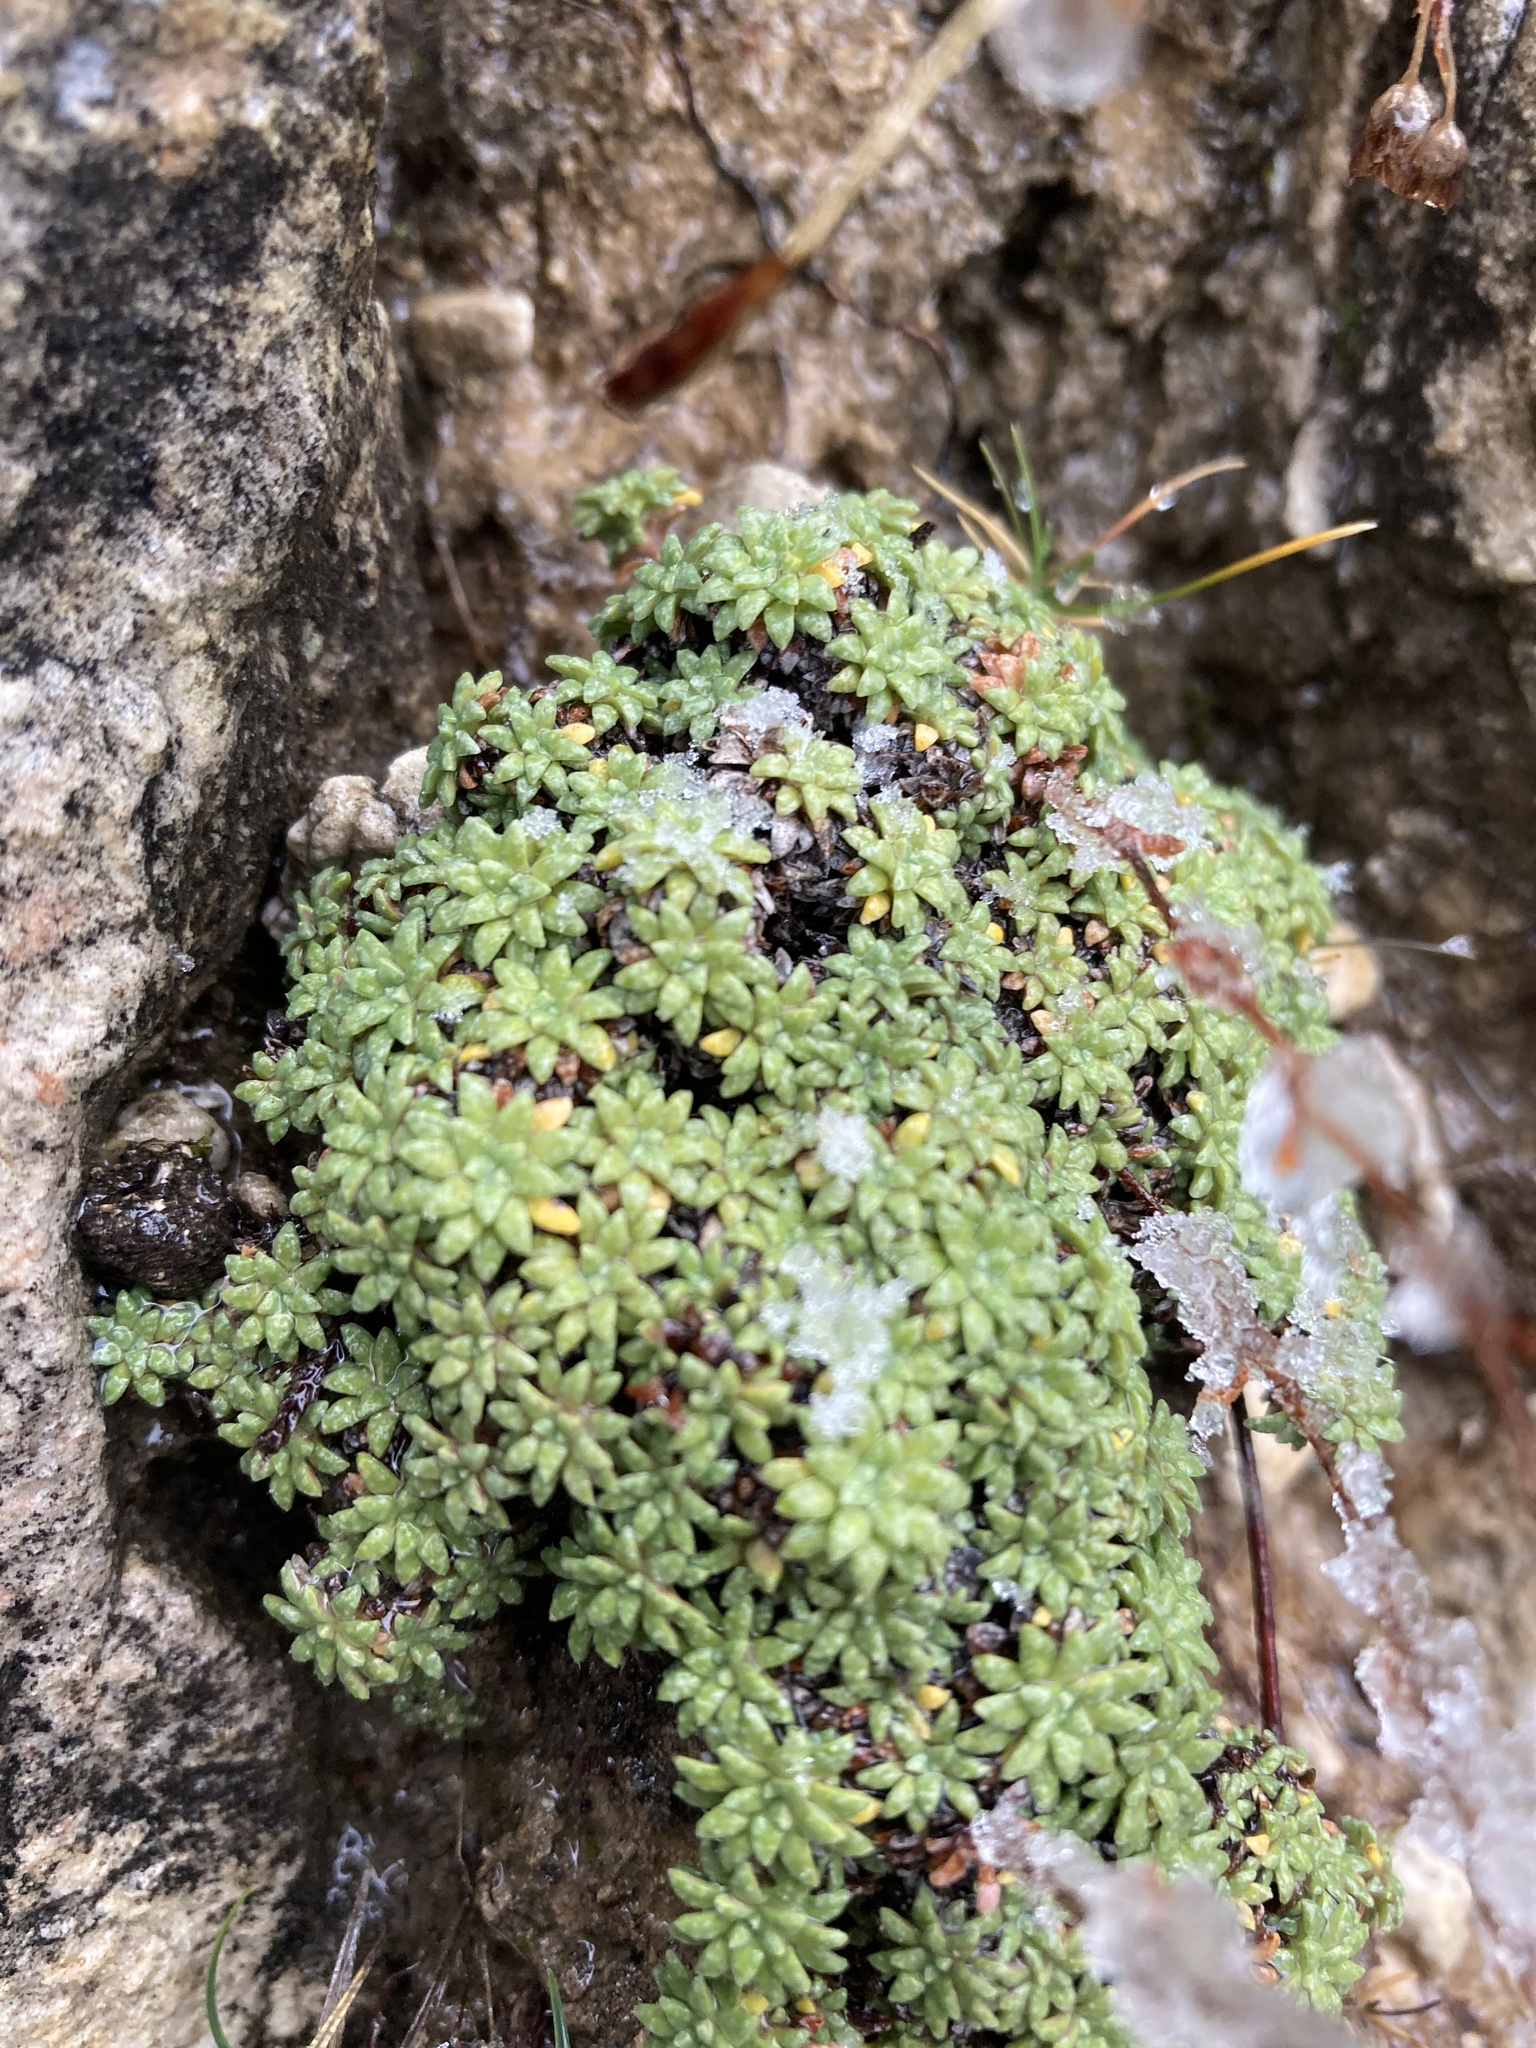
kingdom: Plantae
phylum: Tracheophyta
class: Magnoliopsida
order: Saxifragales
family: Saxifragaceae
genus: Saxifraga
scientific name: Saxifraga caesia
